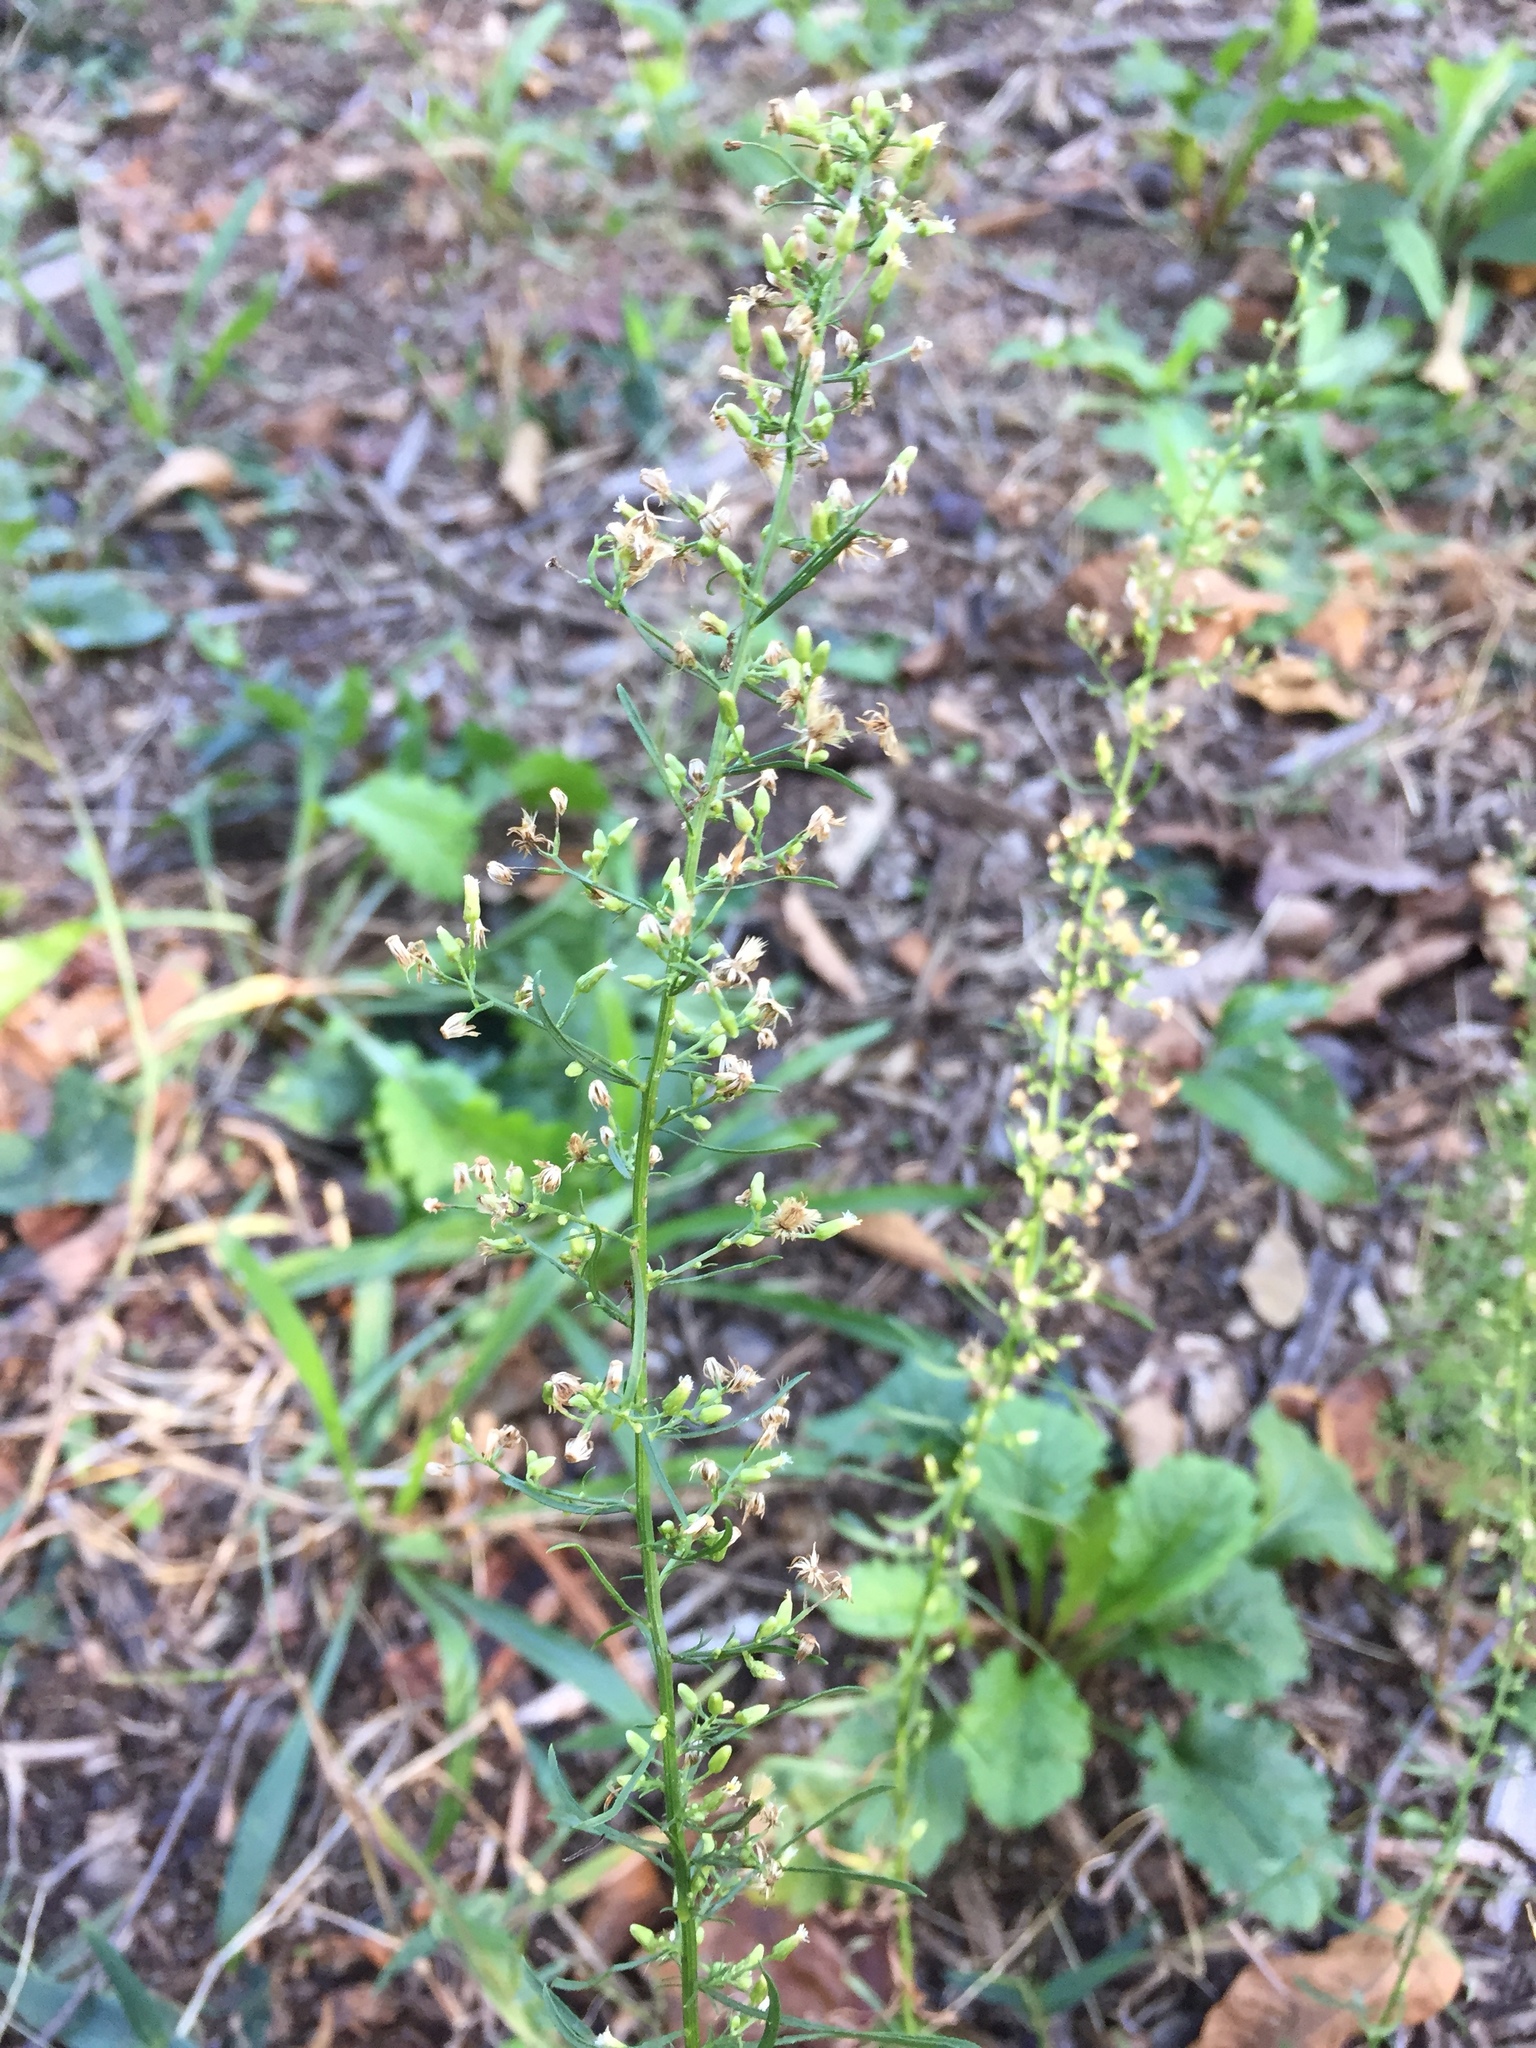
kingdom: Plantae
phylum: Tracheophyta
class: Magnoliopsida
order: Asterales
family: Asteraceae
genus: Erigeron
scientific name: Erigeron canadensis
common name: Canadian fleabane
